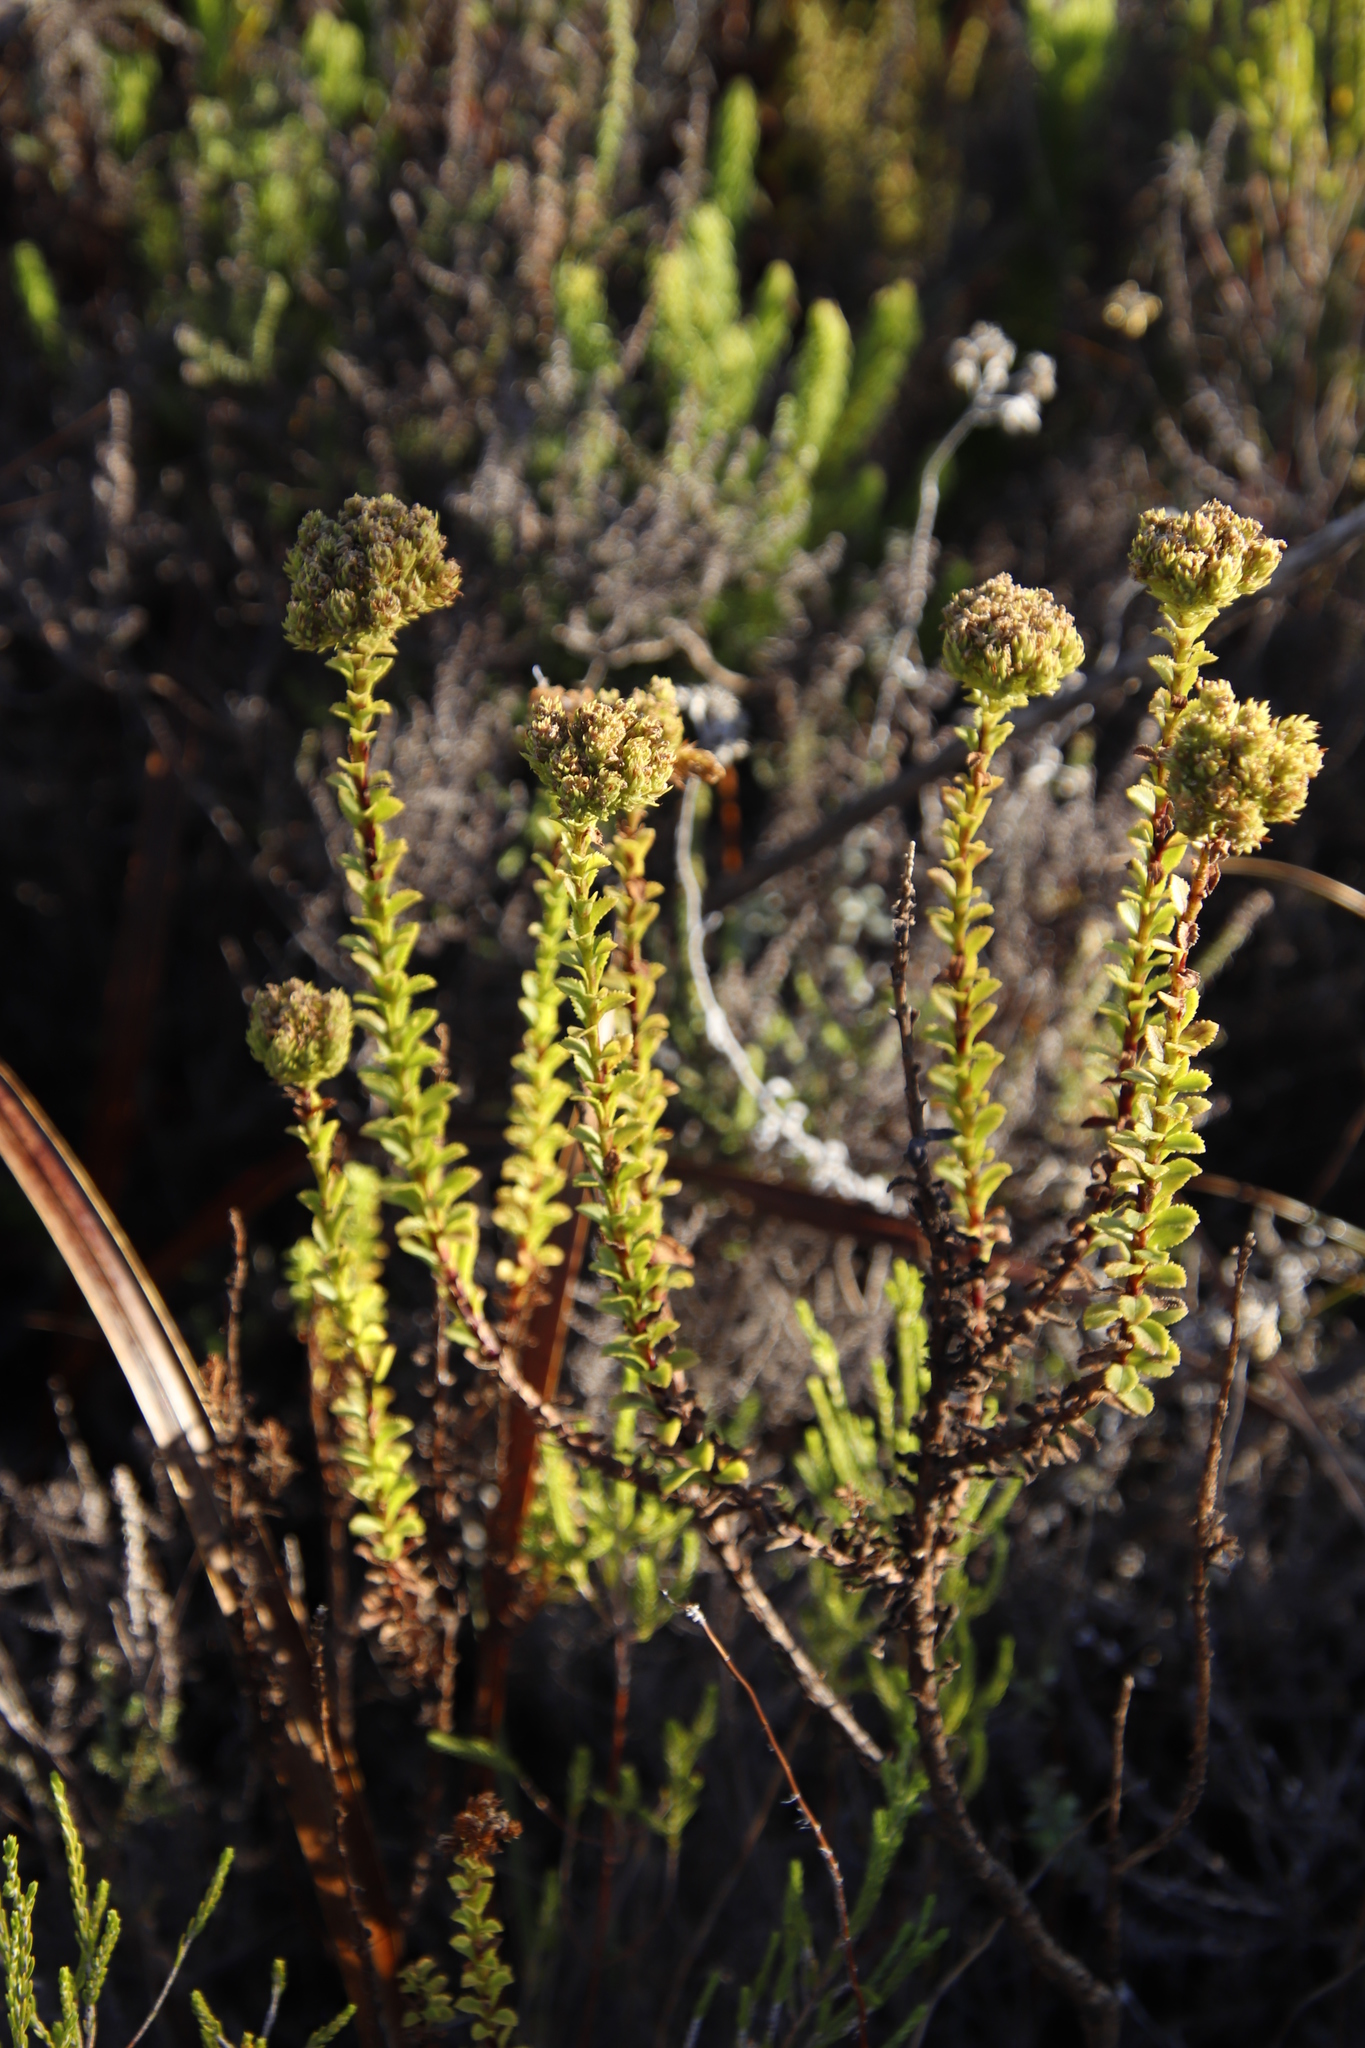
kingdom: Plantae
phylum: Tracheophyta
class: Magnoliopsida
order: Lamiales
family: Scrophulariaceae
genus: Pseudoselago
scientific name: Pseudoselago serrata
